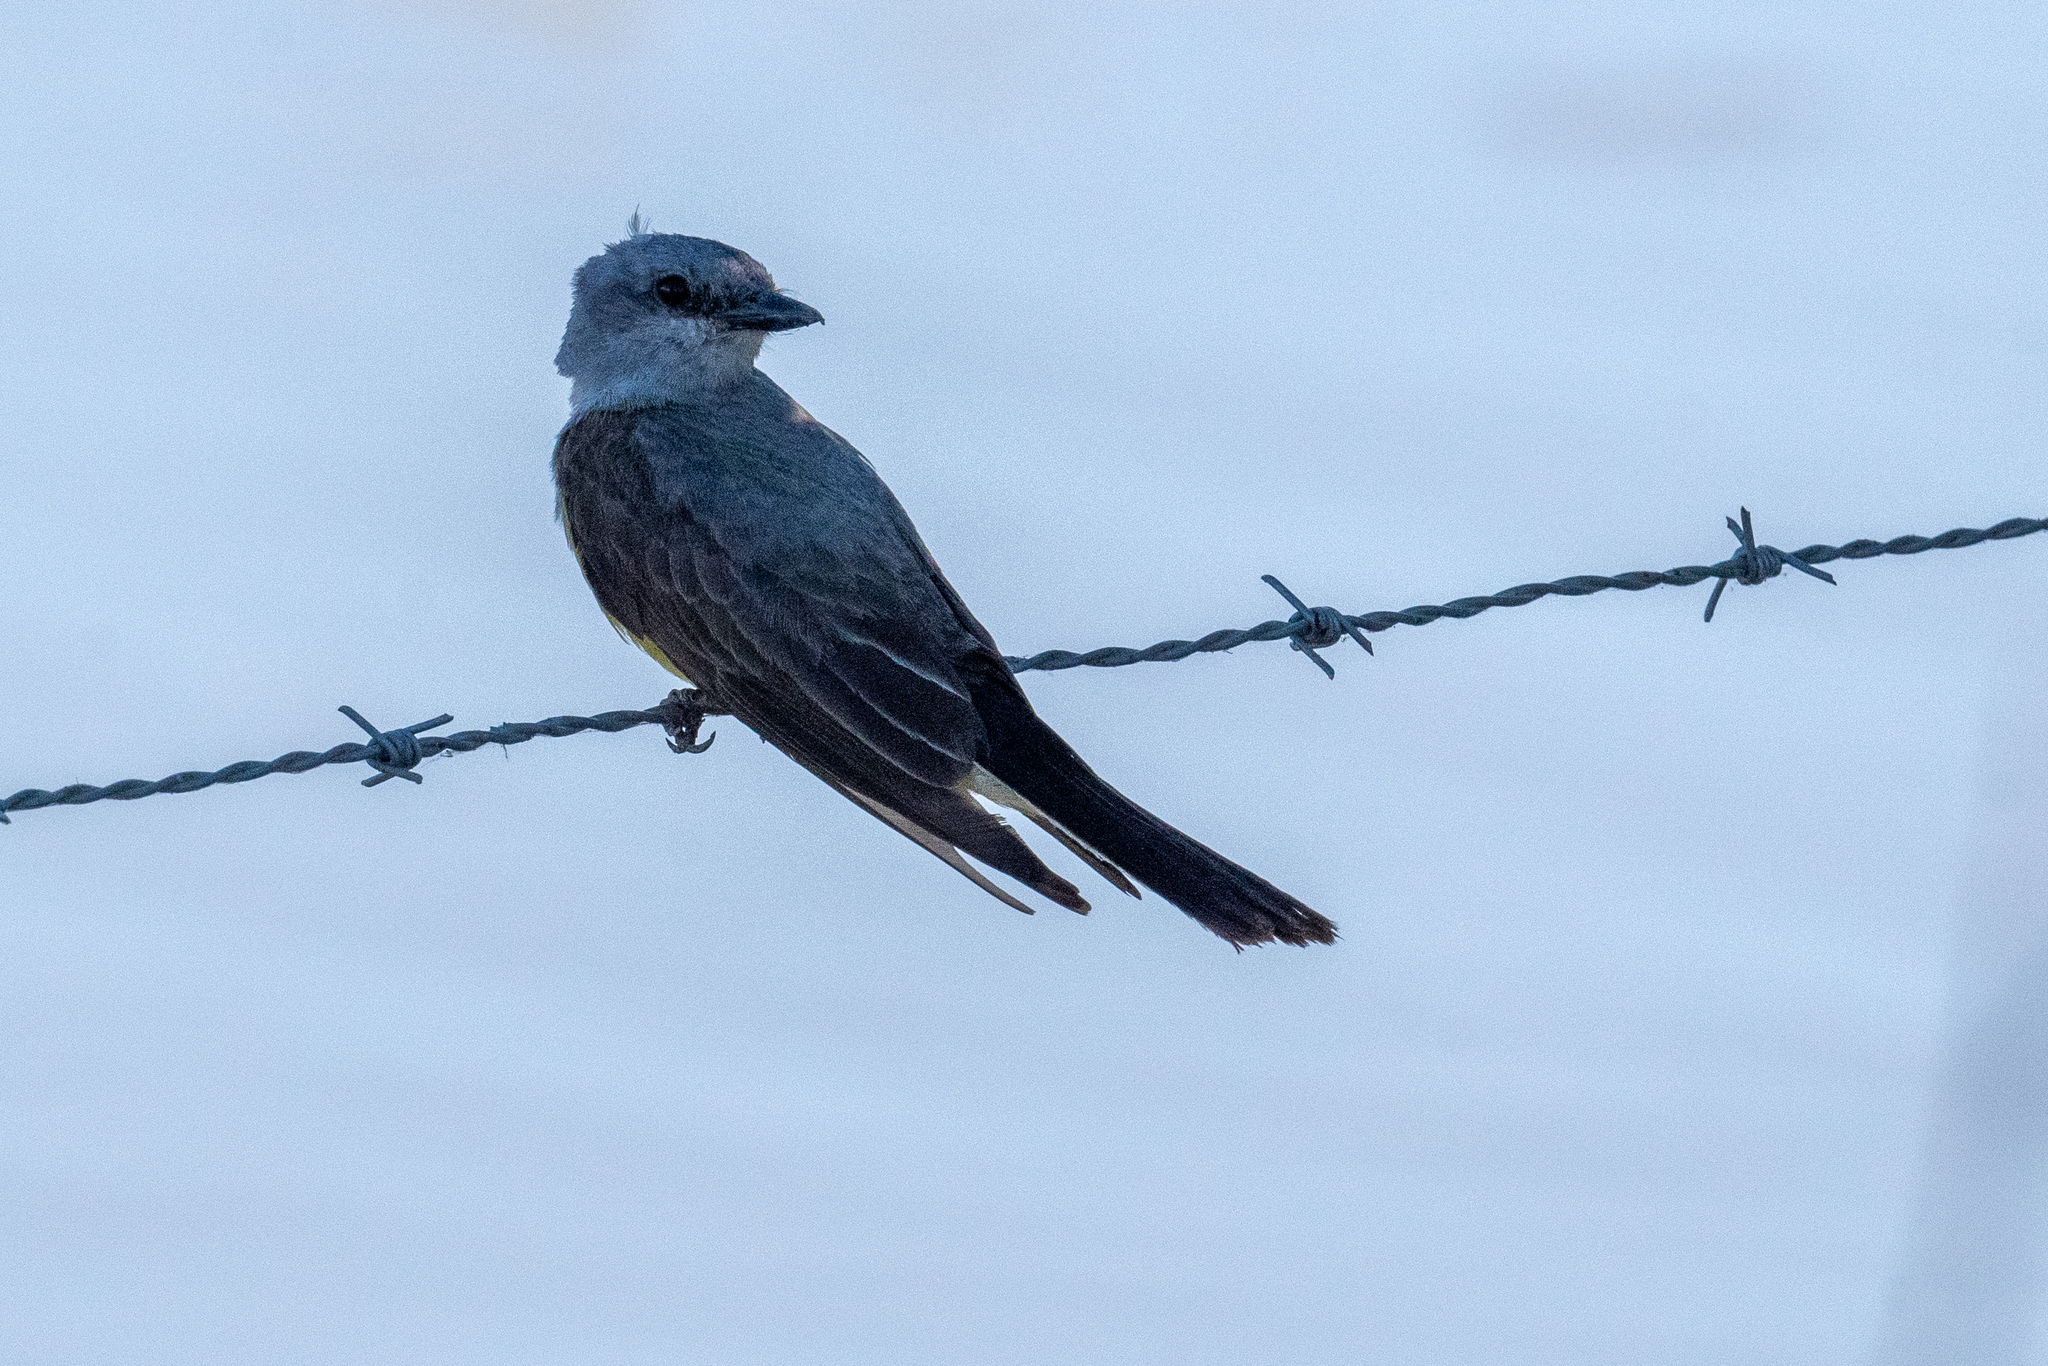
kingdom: Animalia
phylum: Chordata
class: Aves
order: Passeriformes
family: Tyrannidae
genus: Tyrannus
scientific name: Tyrannus verticalis
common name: Western kingbird
